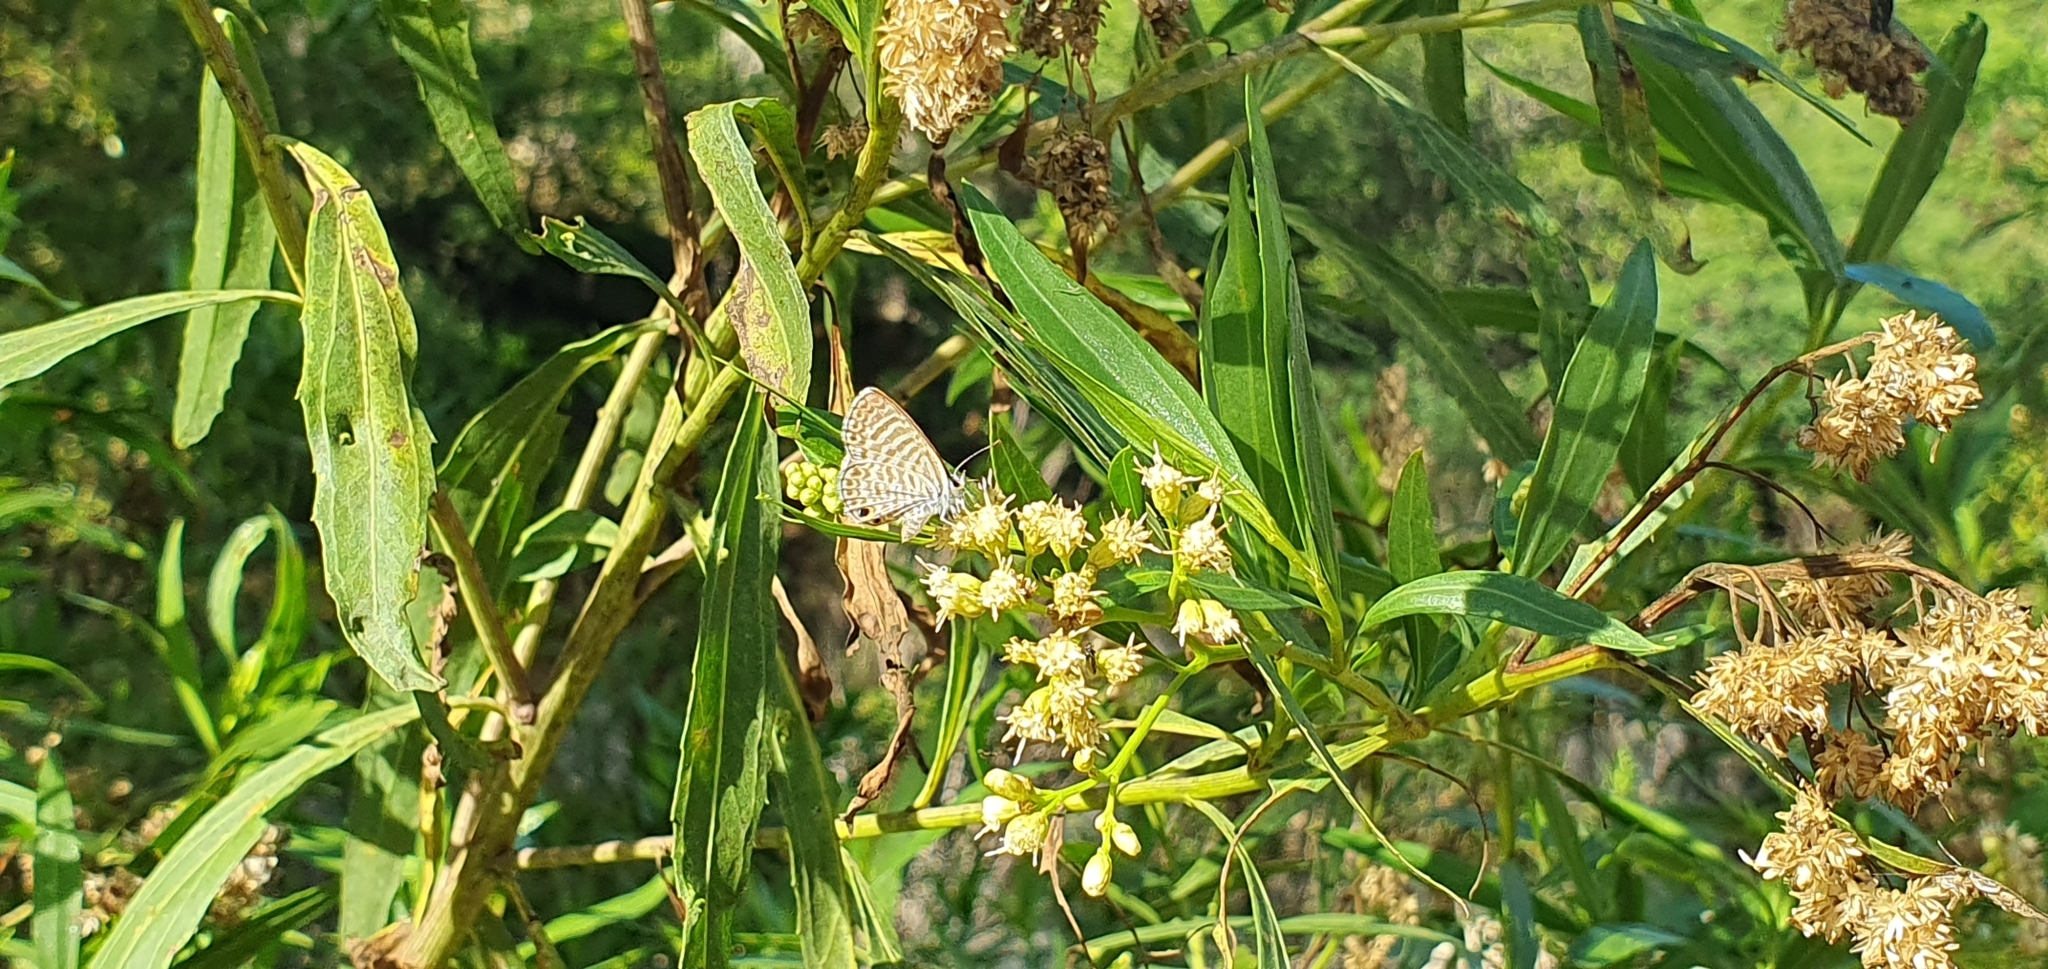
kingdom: Animalia
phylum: Arthropoda
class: Insecta
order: Lepidoptera
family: Lycaenidae
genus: Leptotes
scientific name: Leptotes marina
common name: Marine blue
